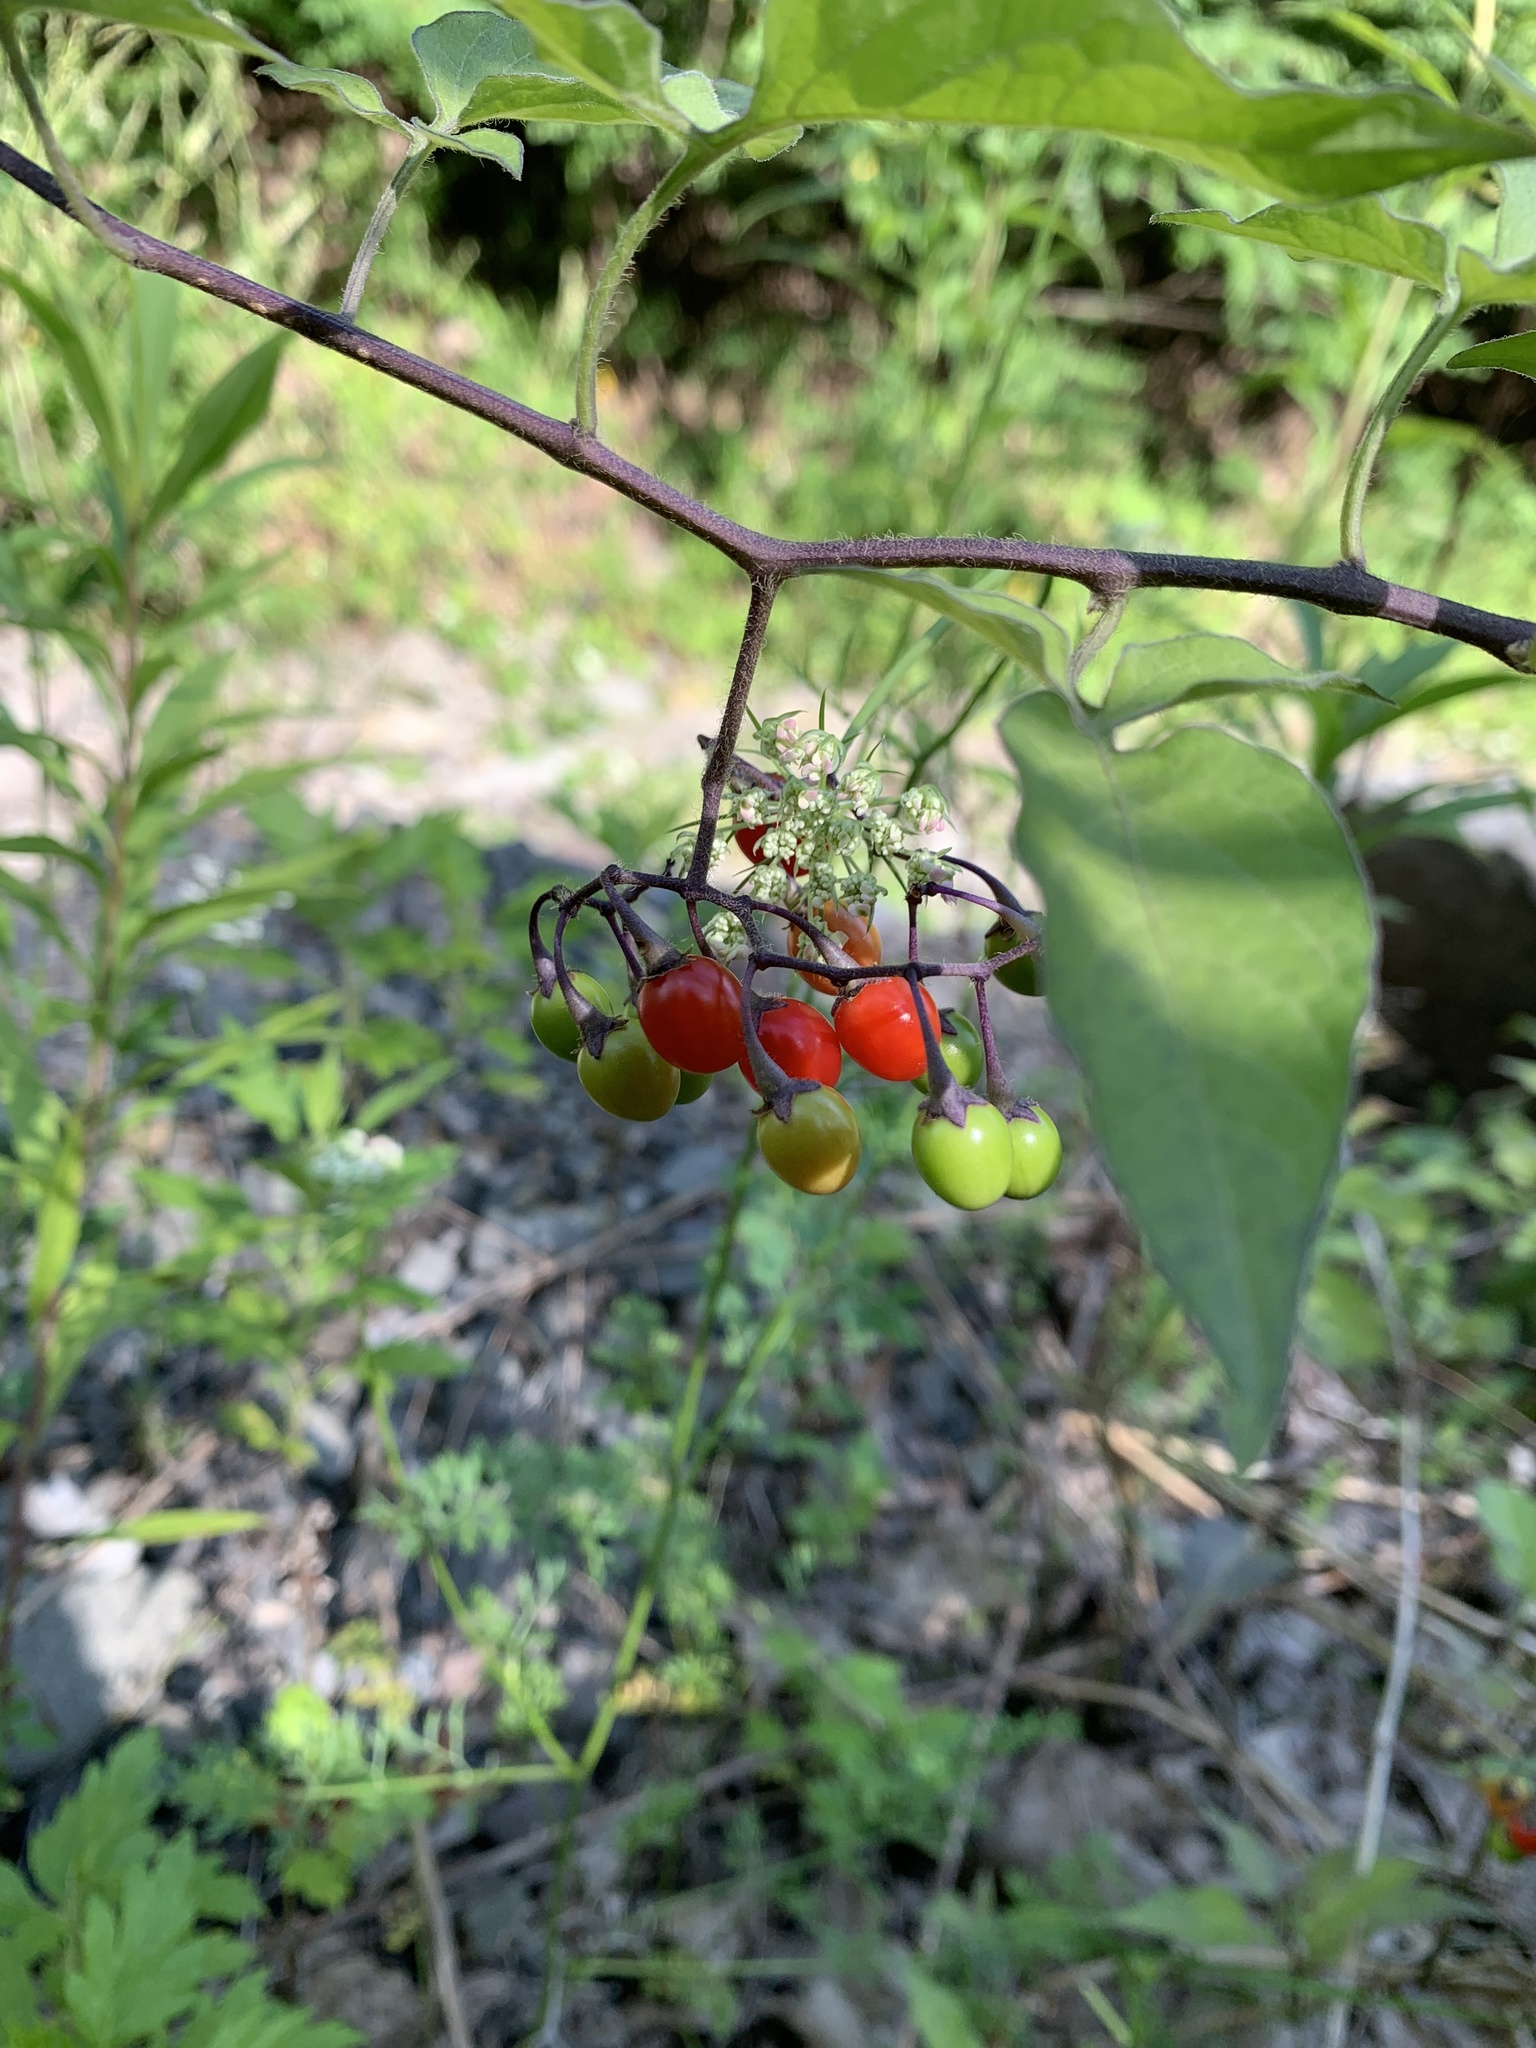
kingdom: Plantae
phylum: Tracheophyta
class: Magnoliopsida
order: Solanales
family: Solanaceae
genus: Solanum
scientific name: Solanum dulcamara
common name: Climbing nightshade
